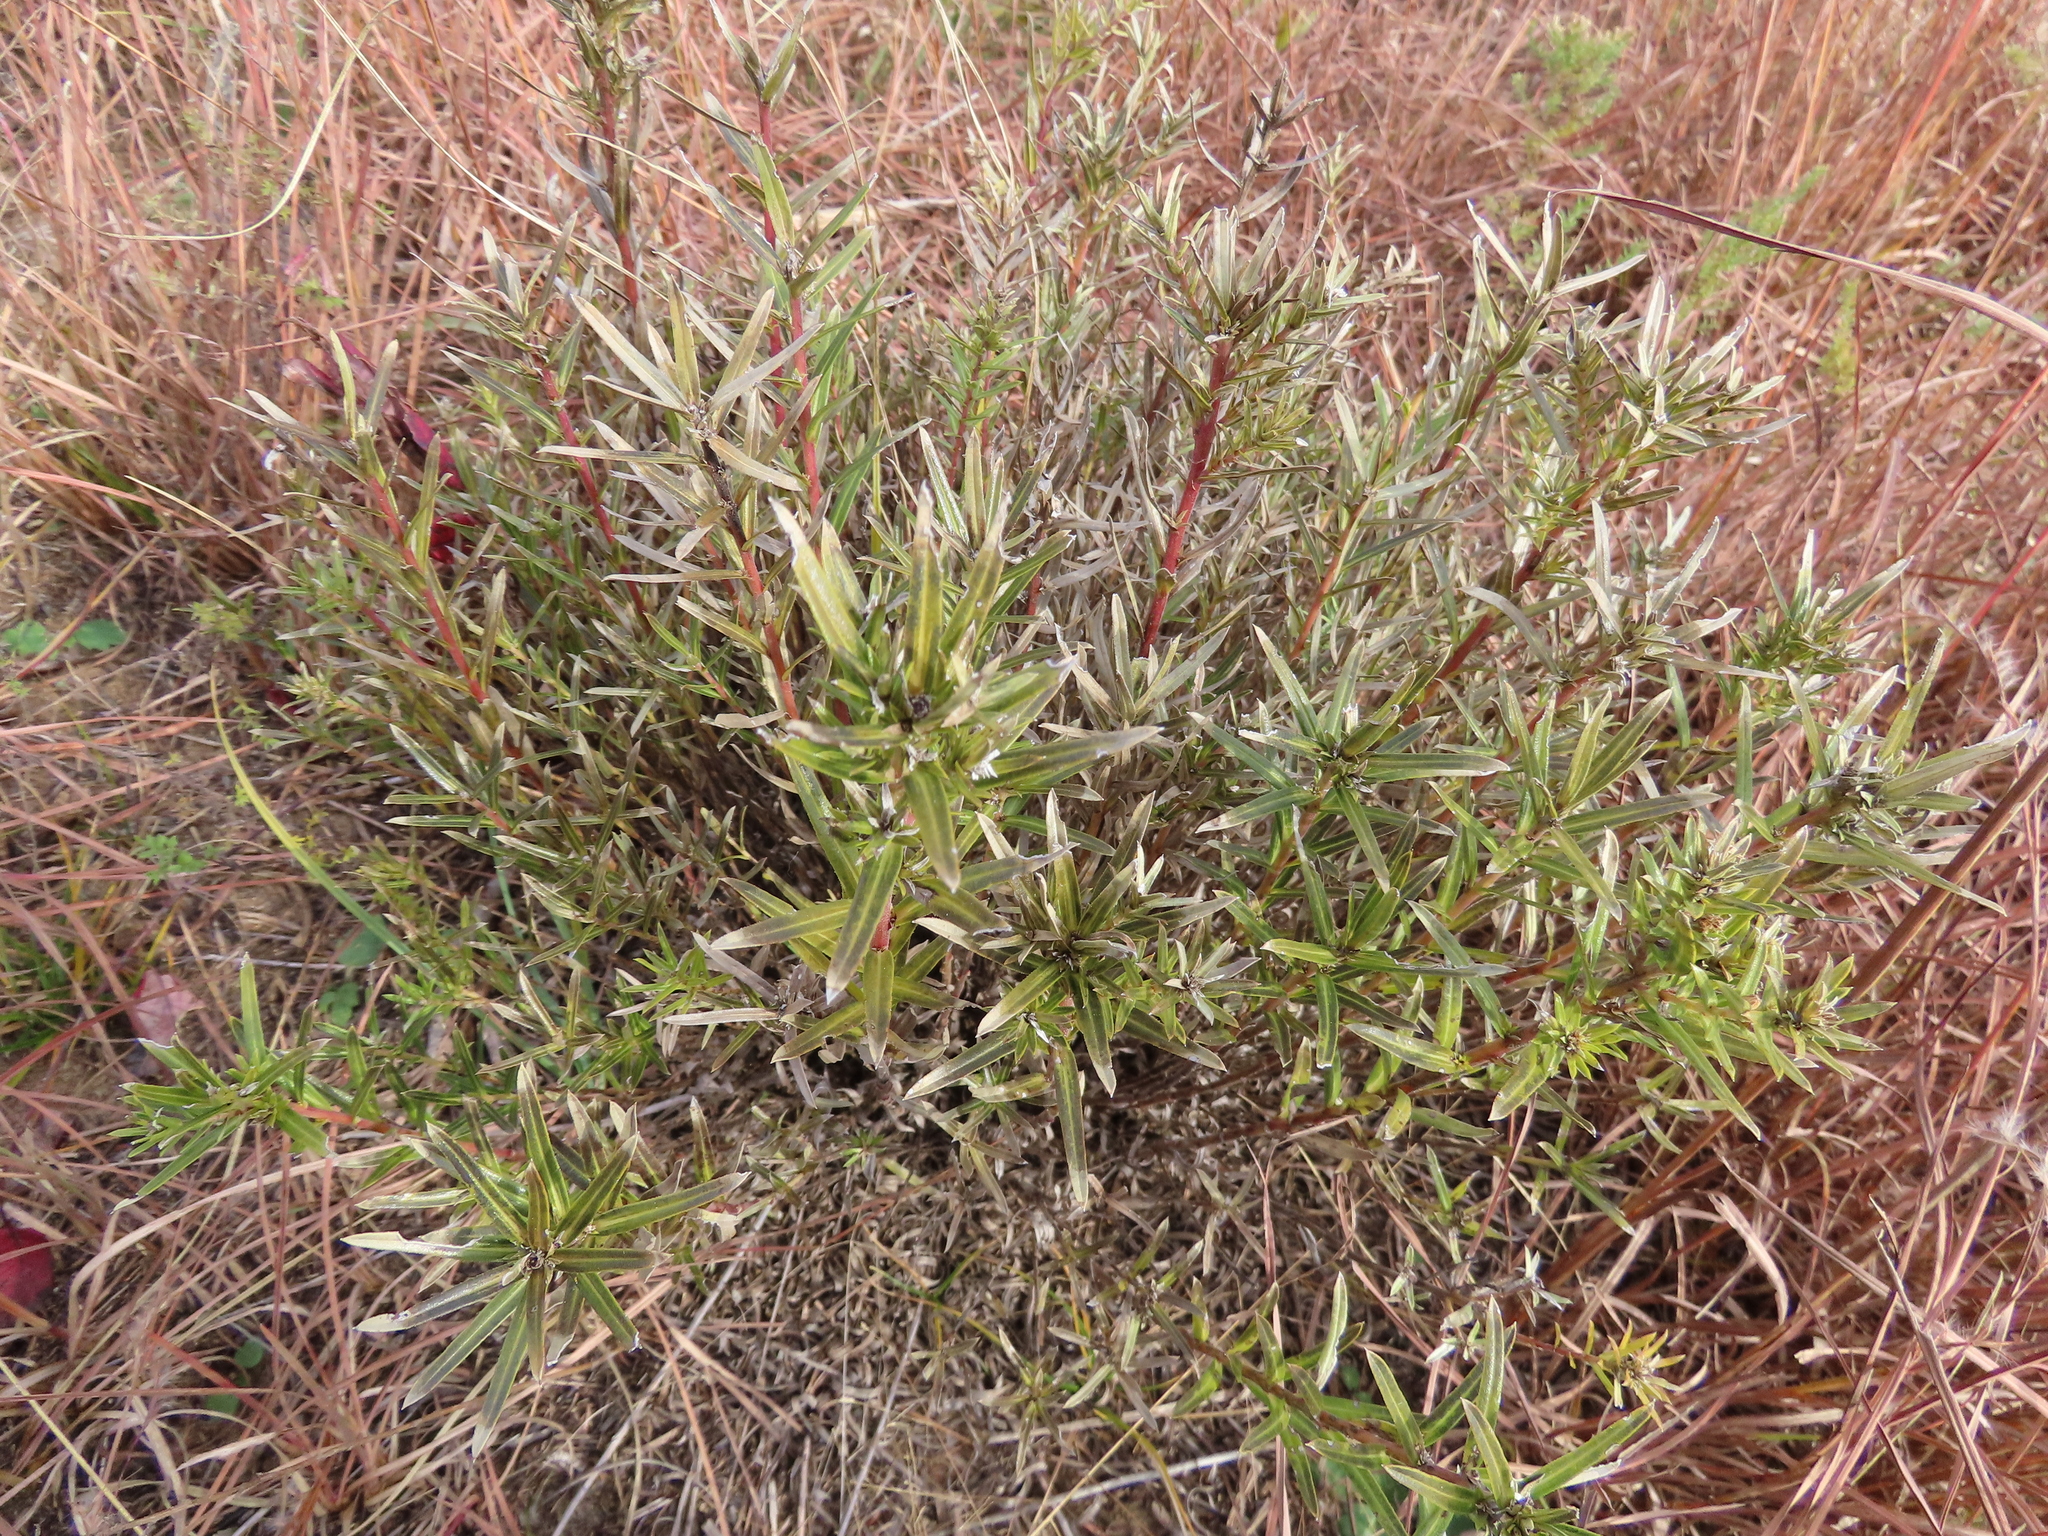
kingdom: Plantae
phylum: Tracheophyta
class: Magnoliopsida
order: Asterales
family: Asteraceae
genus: Ionactis
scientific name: Ionactis linariifolia
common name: Flax-leaf aster
